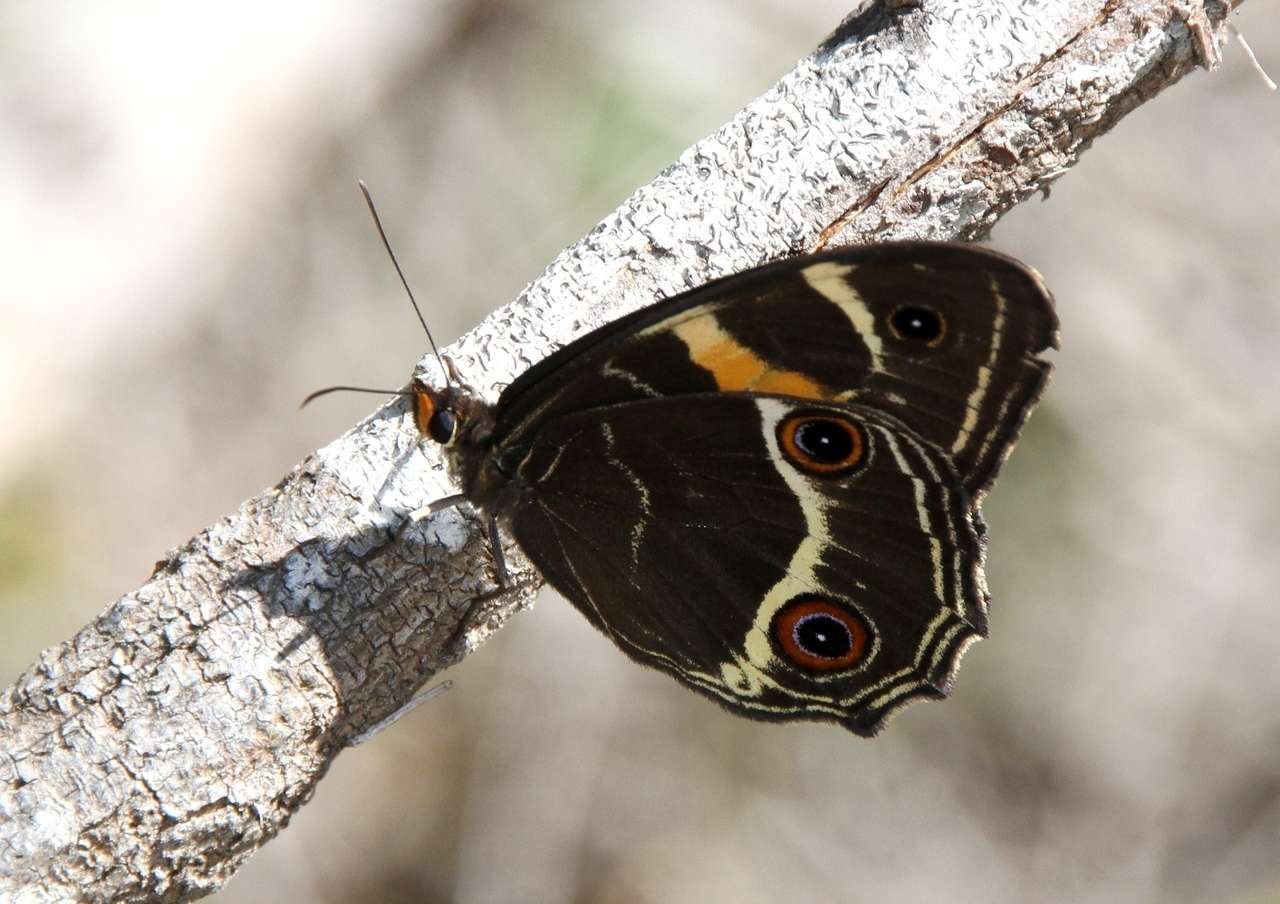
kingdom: Animalia
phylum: Arthropoda
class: Insecta
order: Lepidoptera
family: Nymphalidae
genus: Tisiphone
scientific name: Tisiphone abeona
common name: Swordgrass brown
